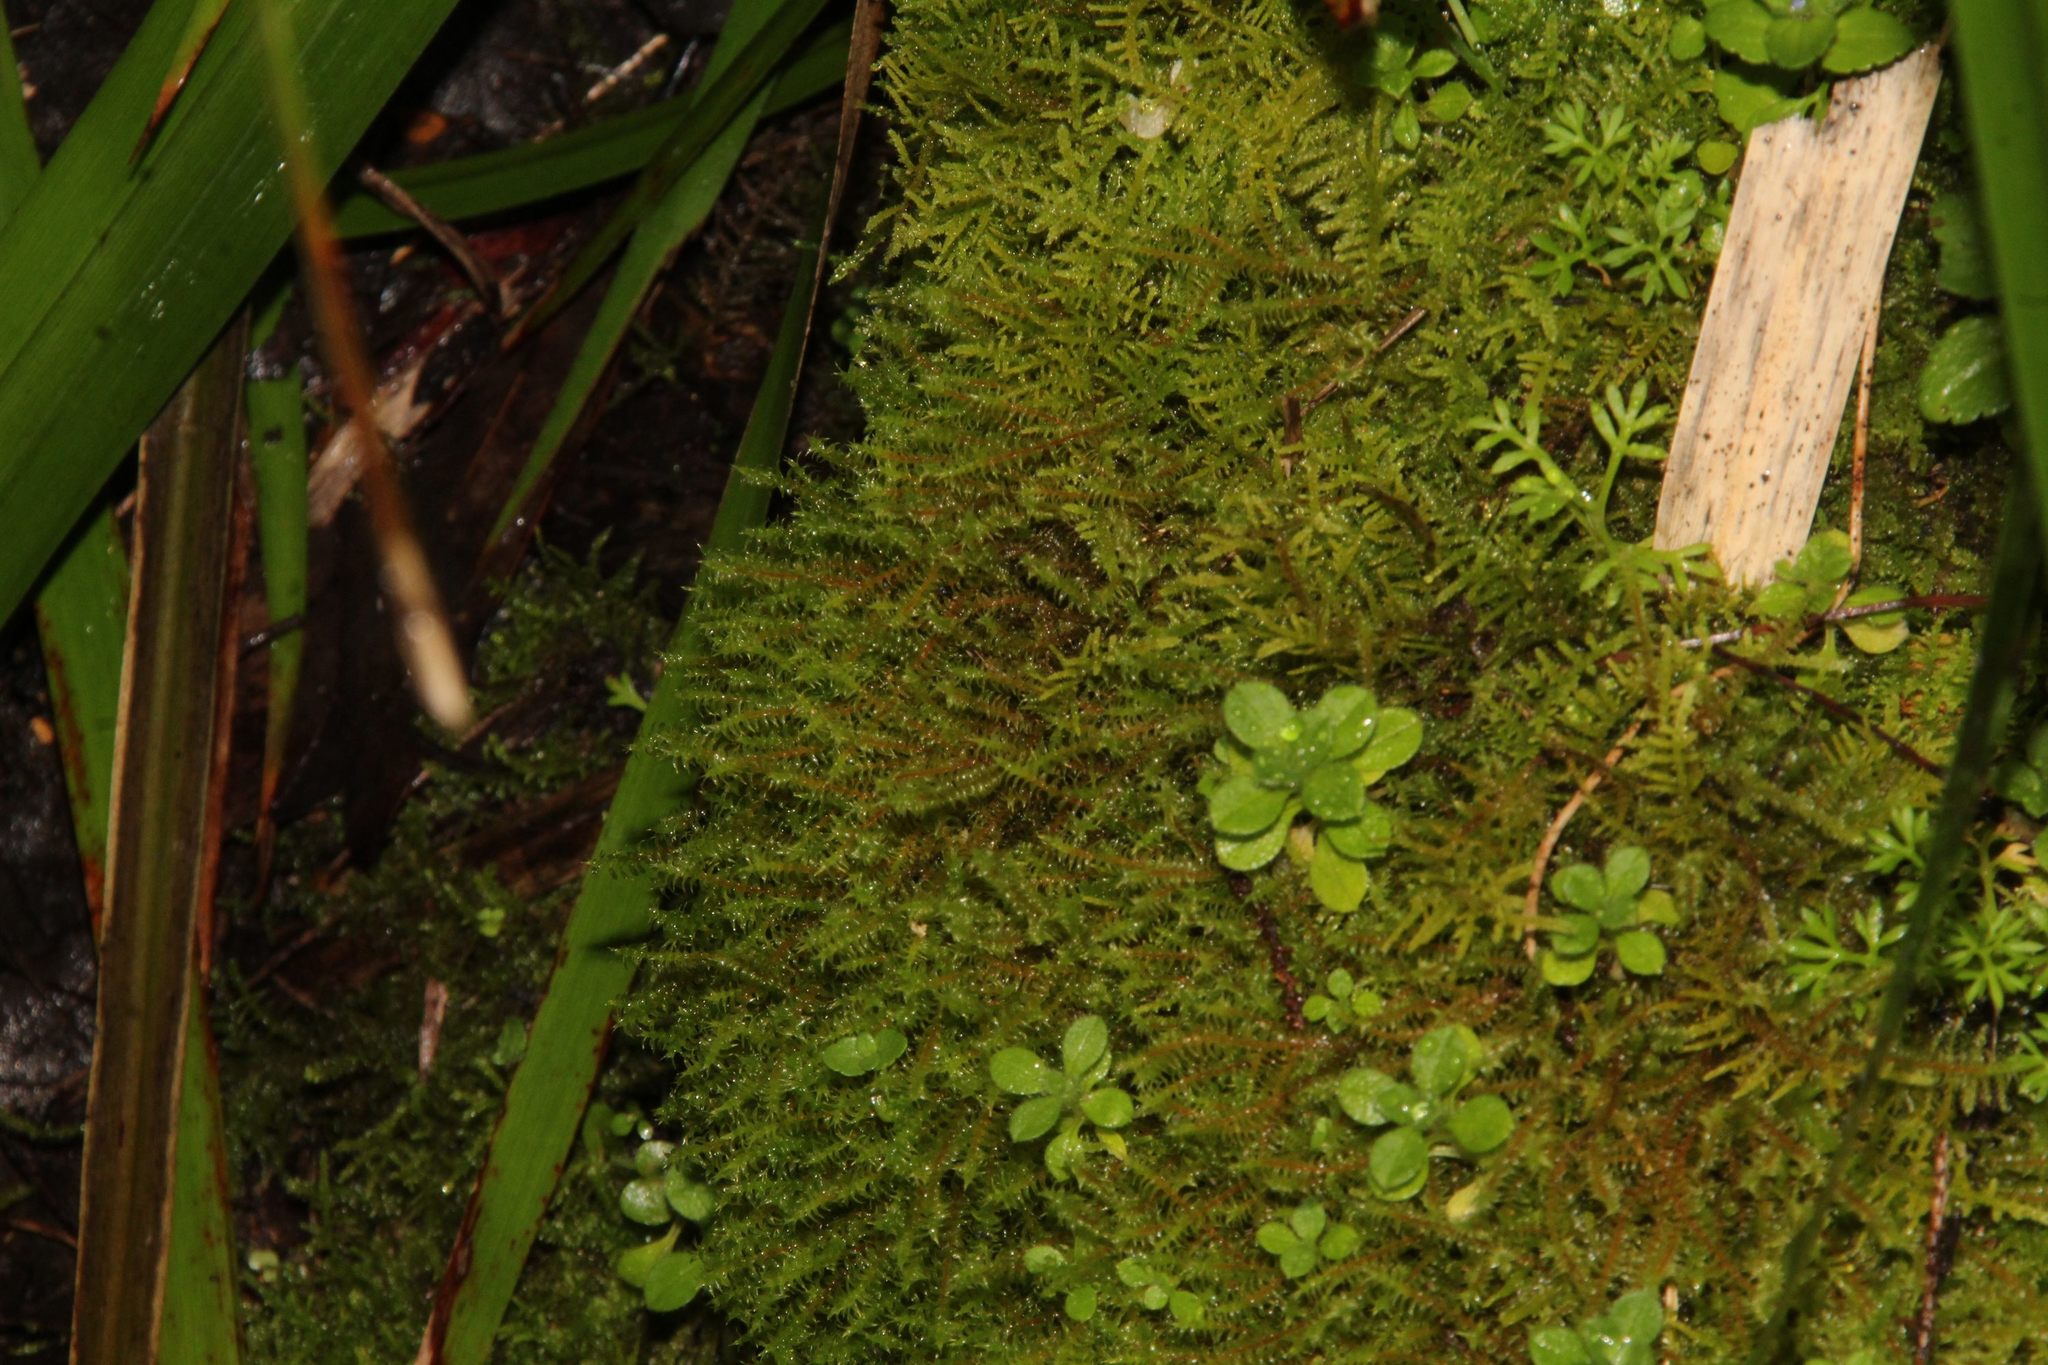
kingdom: Plantae
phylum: Bryophyta
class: Bryopsida
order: Pottiales
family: Pottiaceae
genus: Triquetrella
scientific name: Triquetrella papillata
